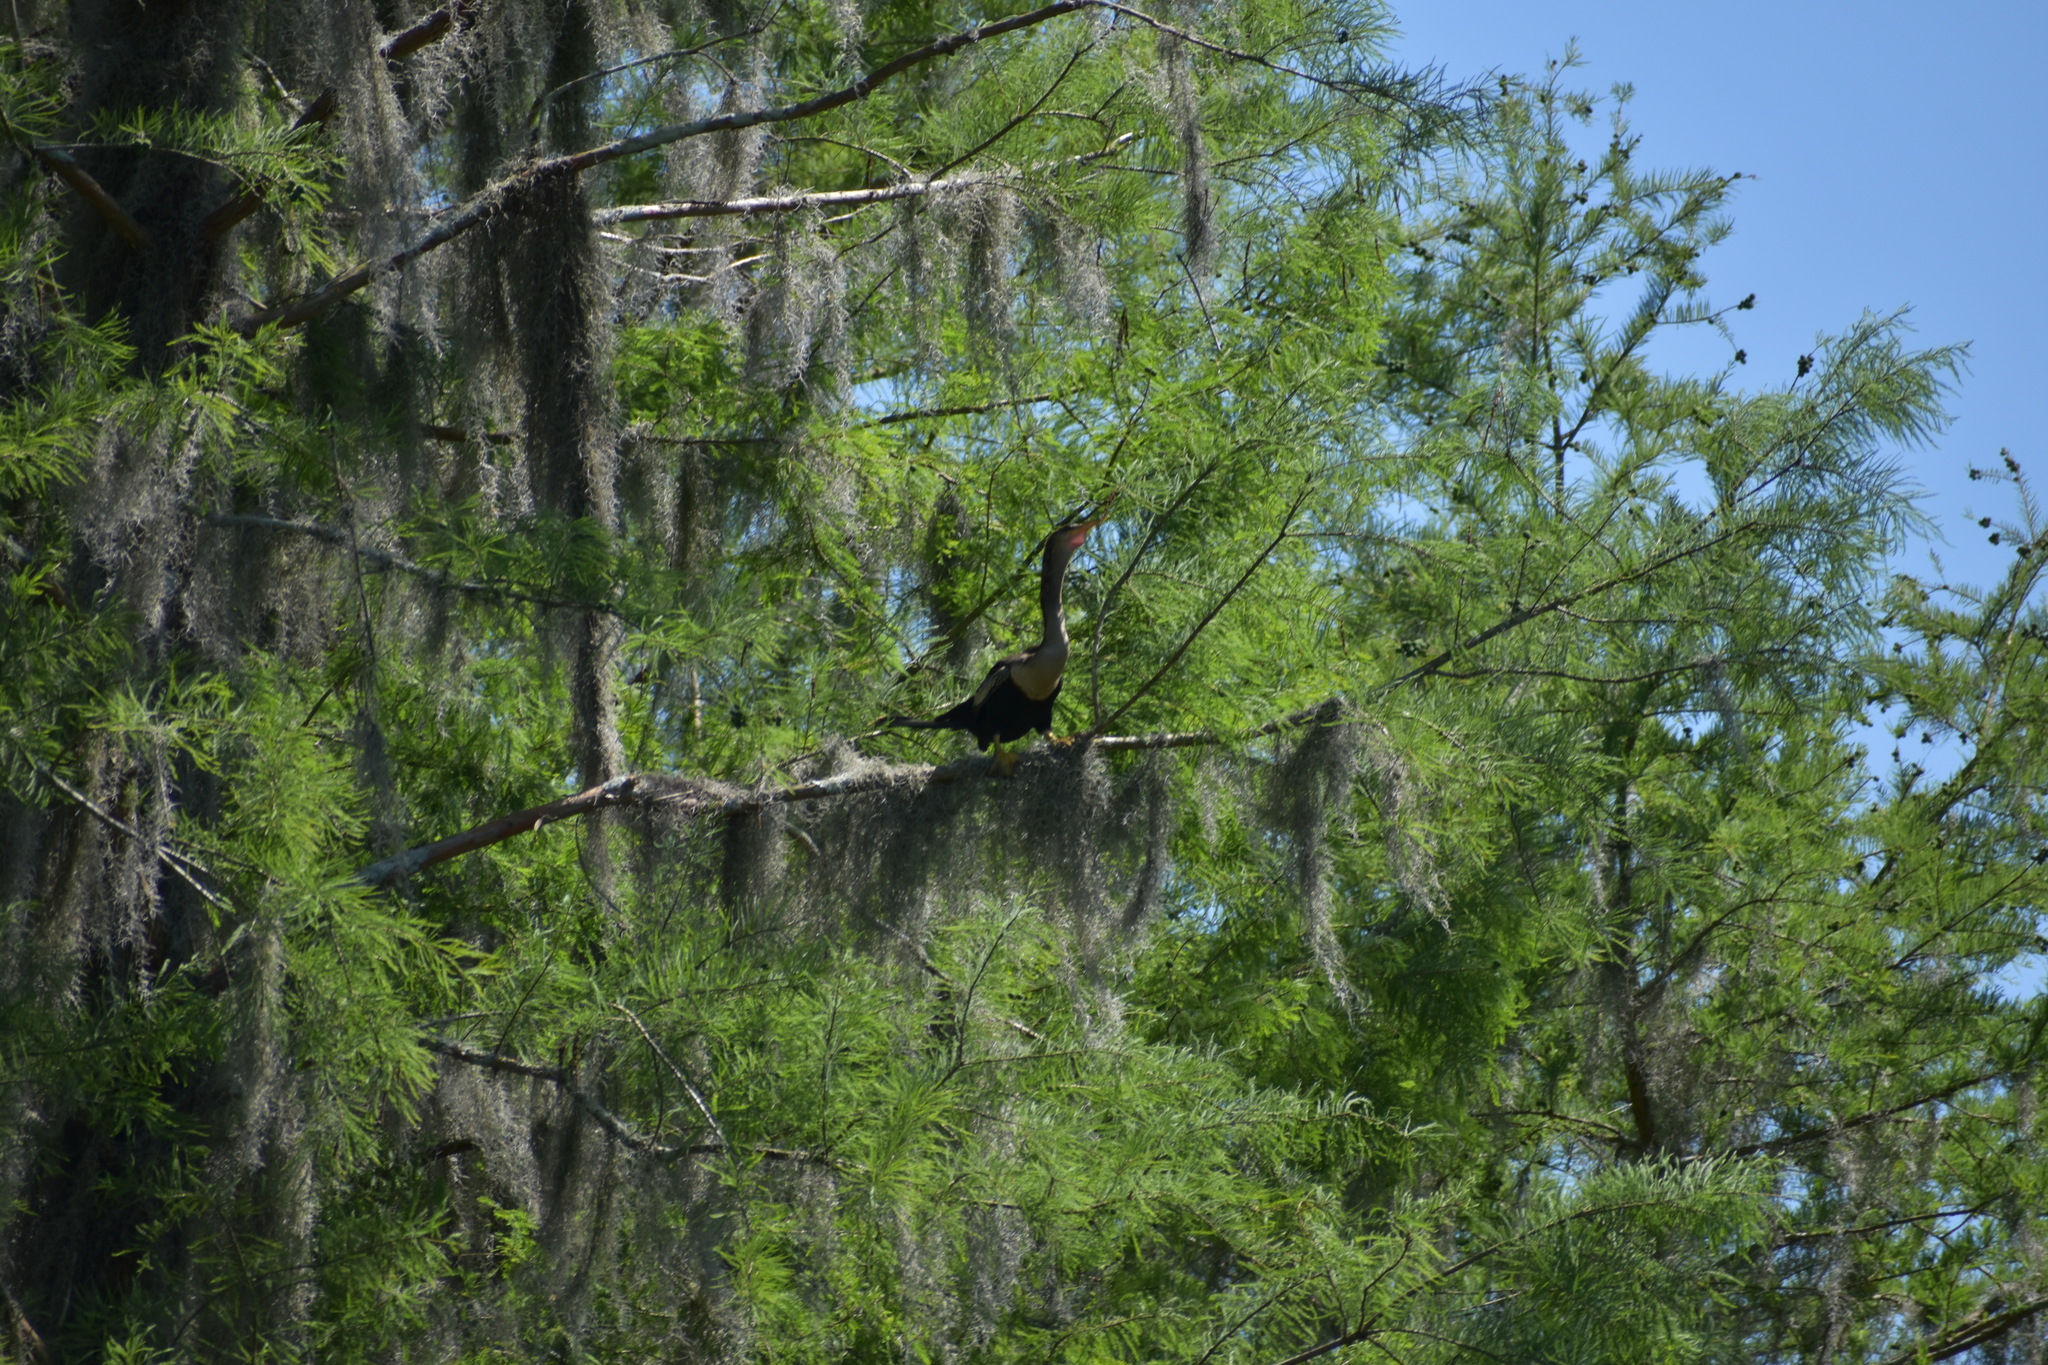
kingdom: Animalia
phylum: Chordata
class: Aves
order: Suliformes
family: Anhingidae
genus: Anhinga
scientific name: Anhinga anhinga
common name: Anhinga
